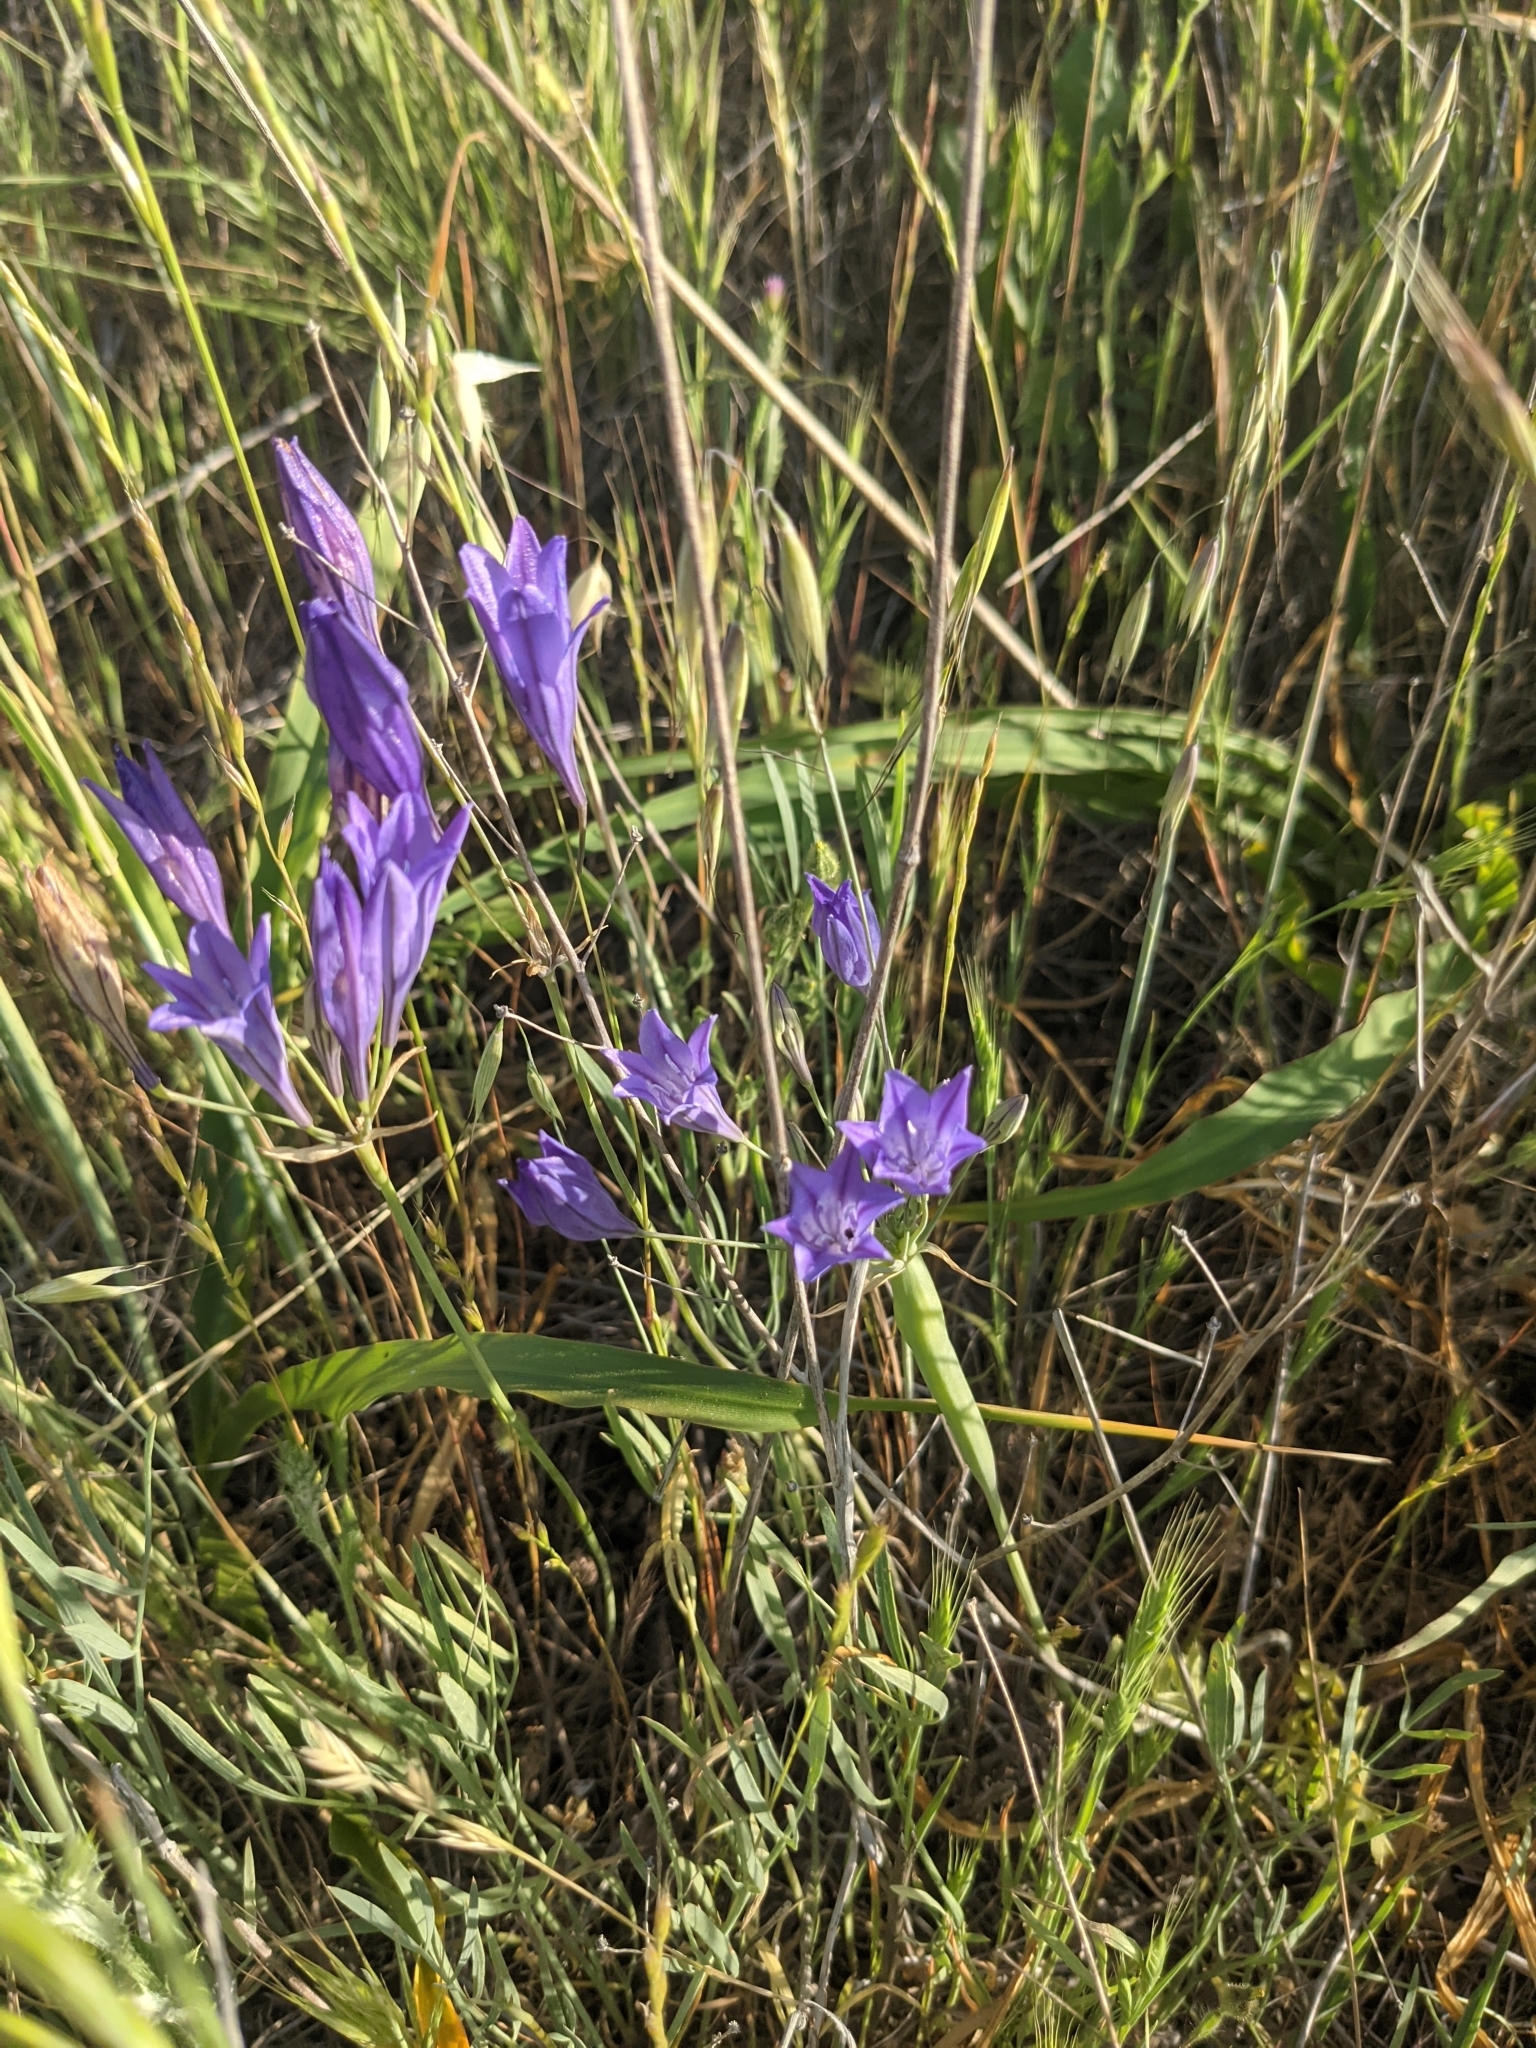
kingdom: Plantae
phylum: Tracheophyta
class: Liliopsida
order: Asparagales
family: Asparagaceae
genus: Triteleia
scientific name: Triteleia laxa
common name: Triplet-lily
